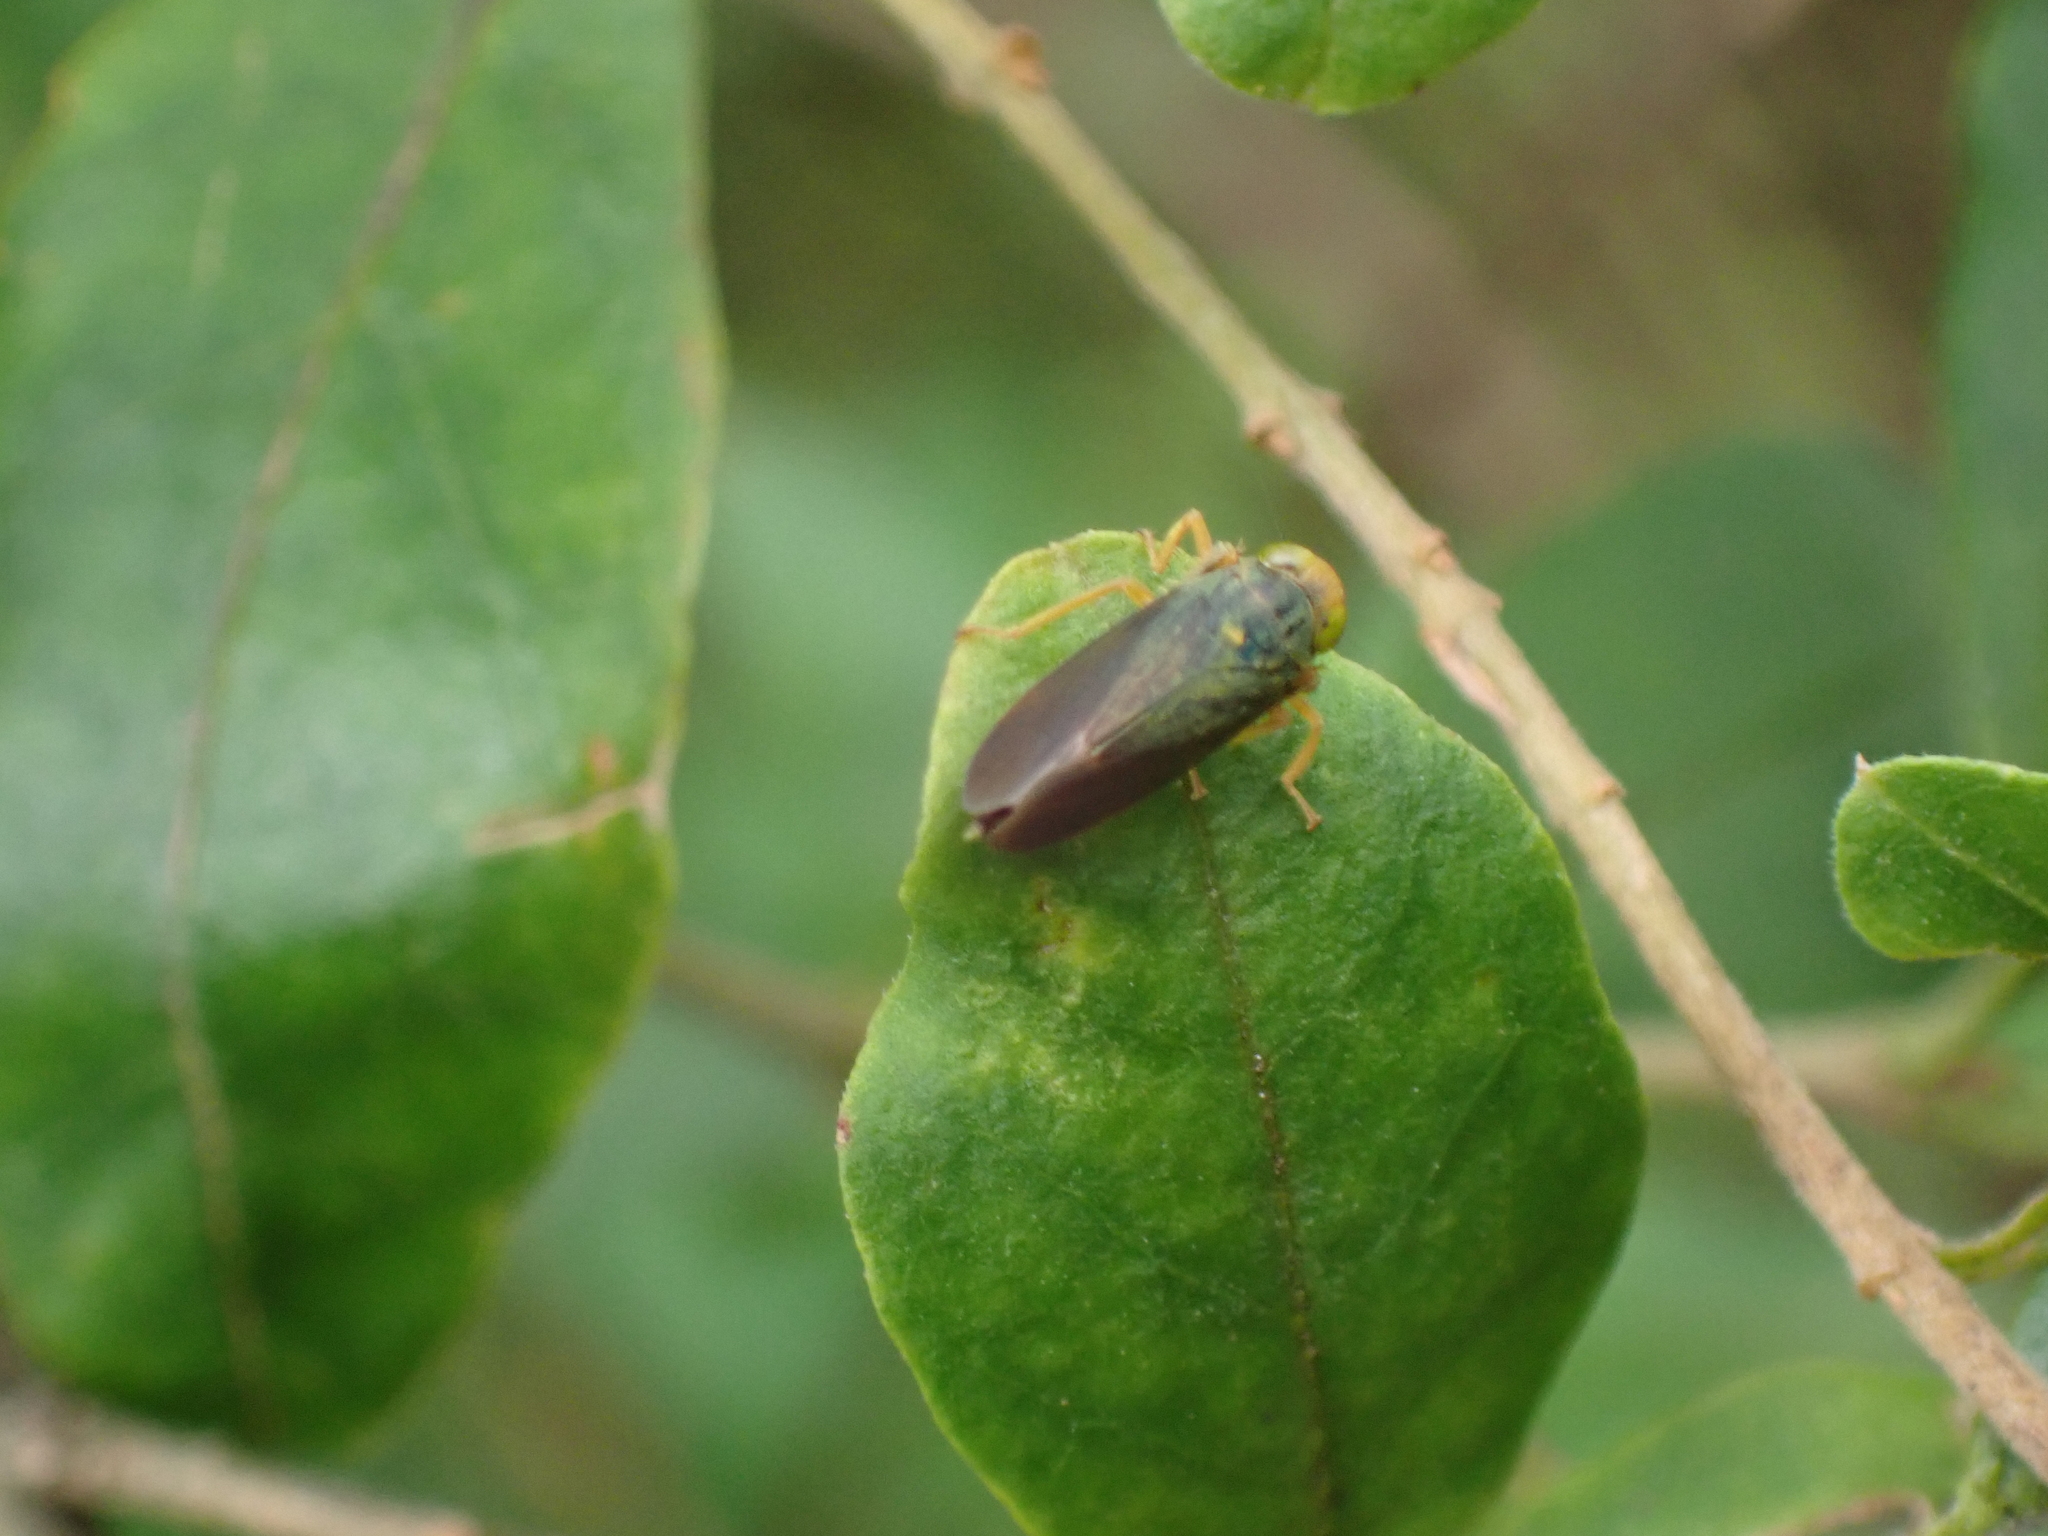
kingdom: Animalia
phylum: Arthropoda
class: Insecta
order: Hemiptera
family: Cicadellidae
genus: Jikradia
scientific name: Jikradia olitoria
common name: Coppery leafhopper
